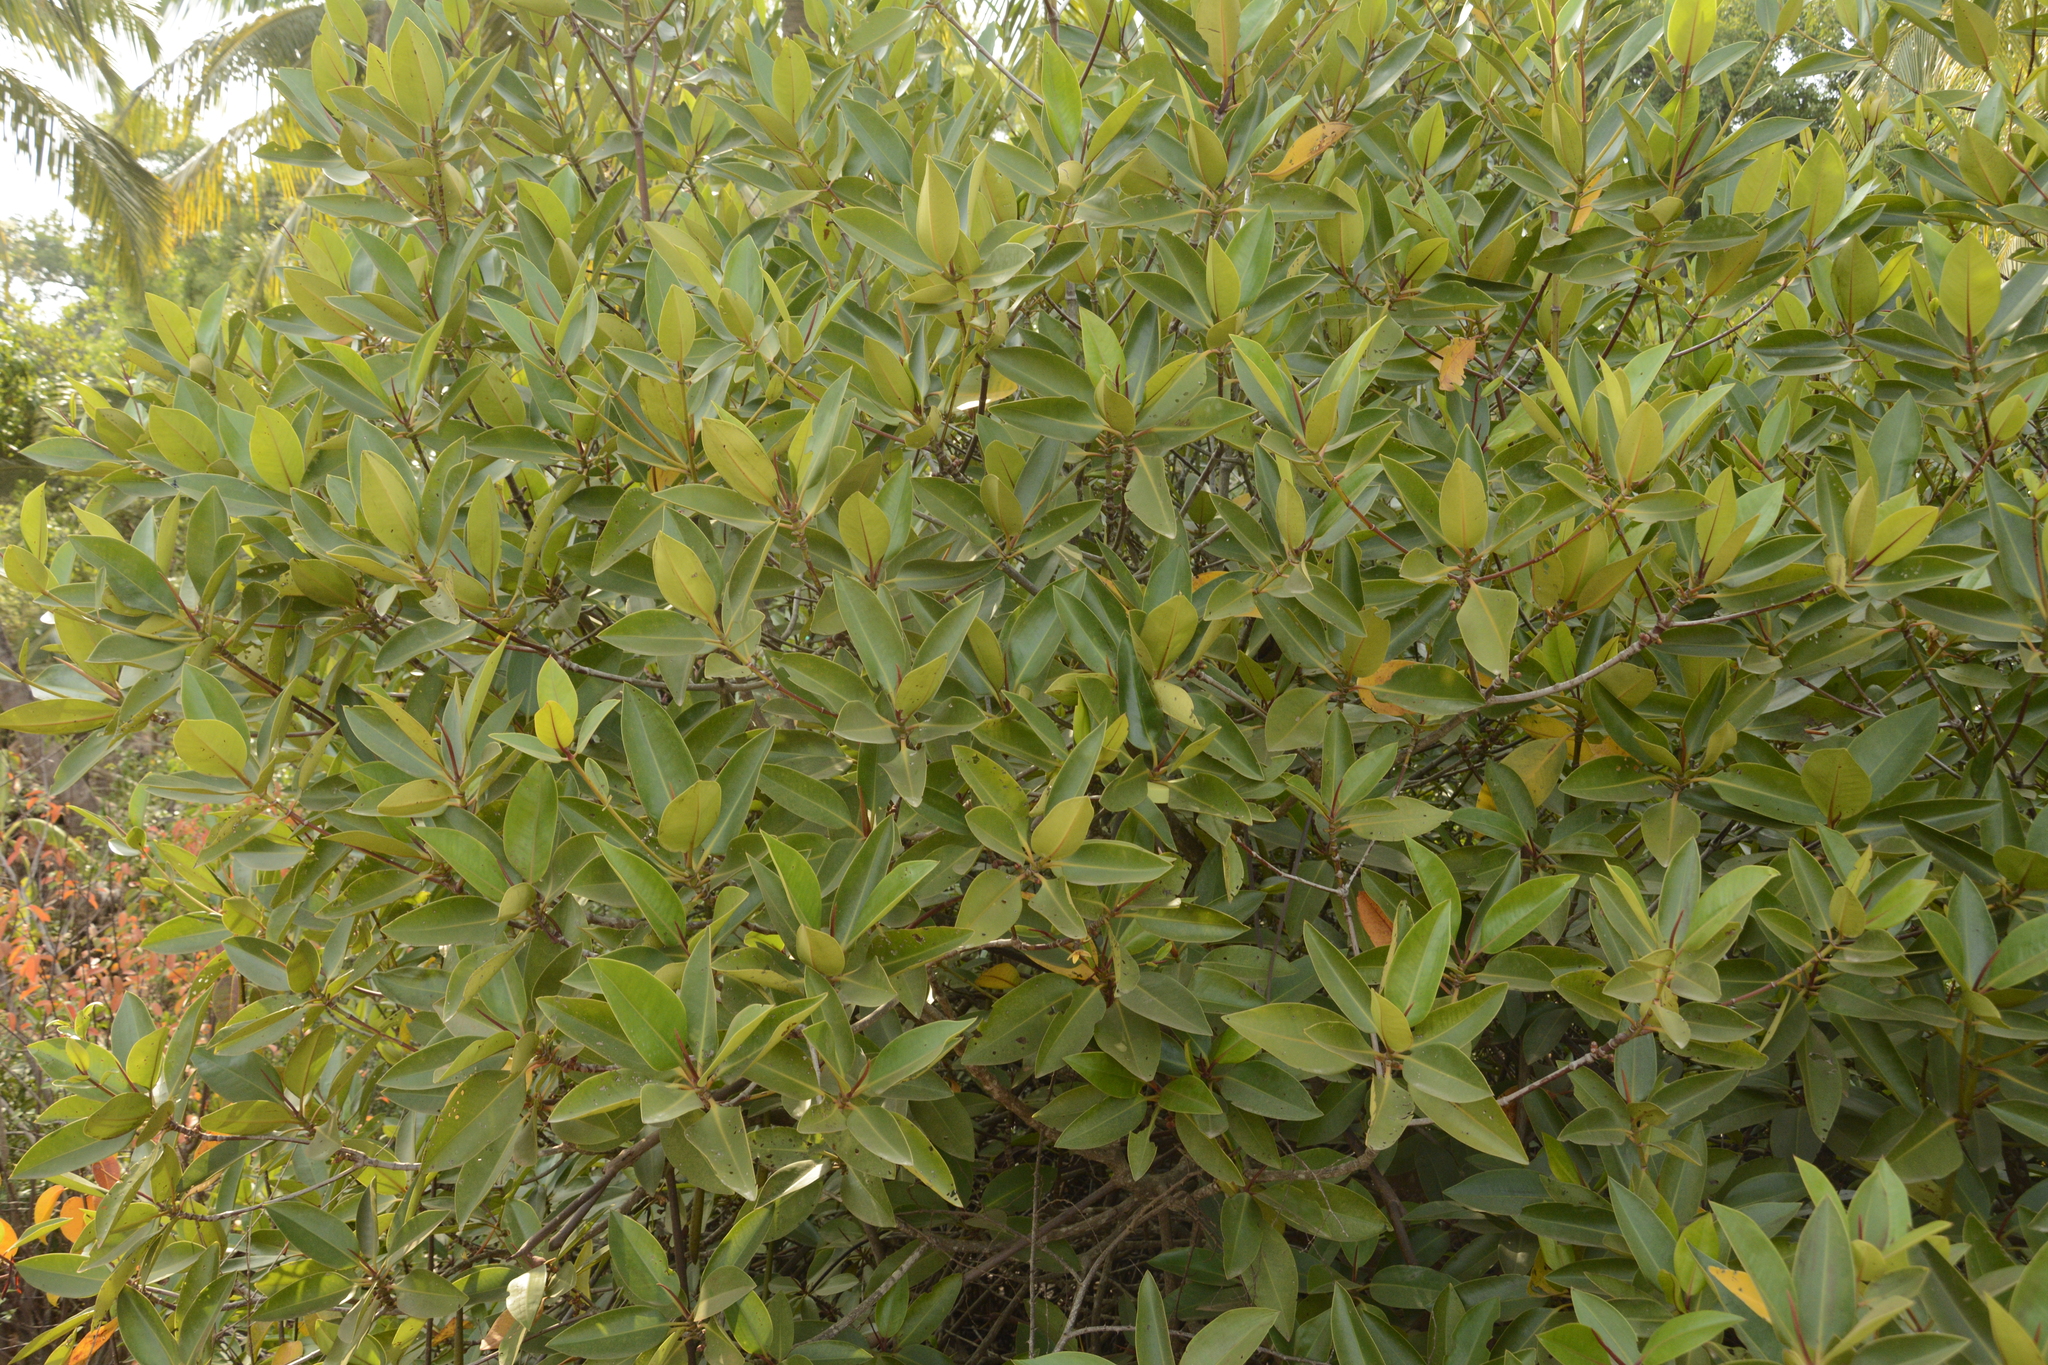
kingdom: Plantae
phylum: Tracheophyta
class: Magnoliopsida
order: Malpighiales
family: Rhizophoraceae
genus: Rhizophora
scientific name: Rhizophora apiculata
